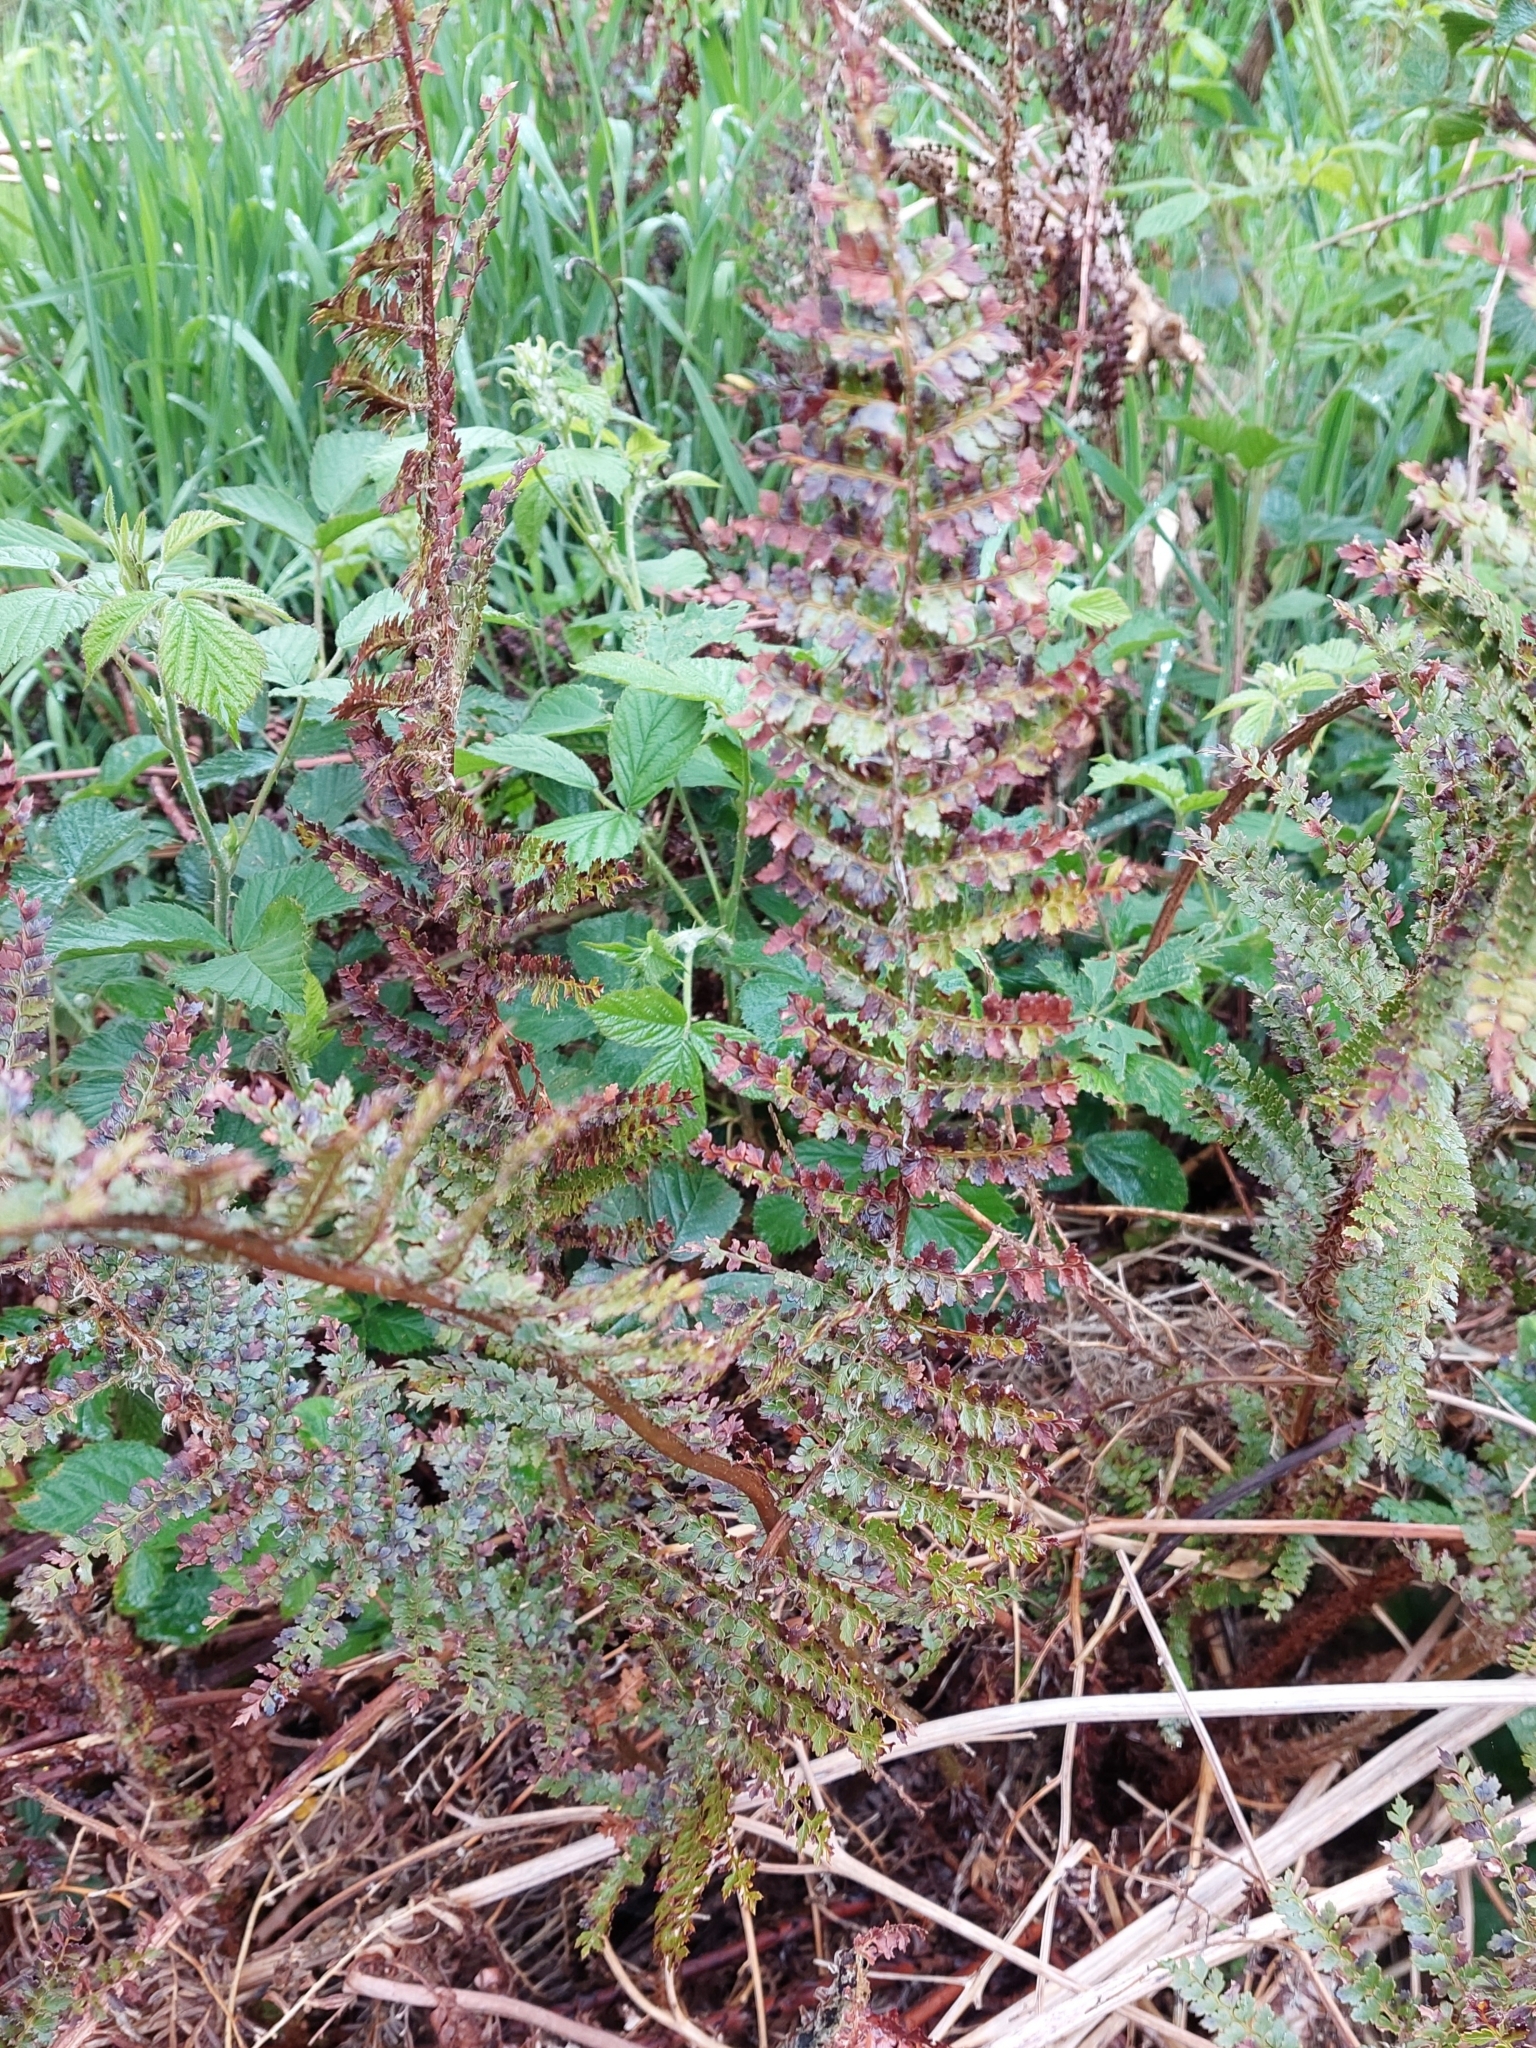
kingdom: Plantae
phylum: Tracheophyta
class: Polypodiopsida
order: Polypodiales
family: Dryopteridaceae
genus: Polystichum
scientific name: Polystichum vestitum
